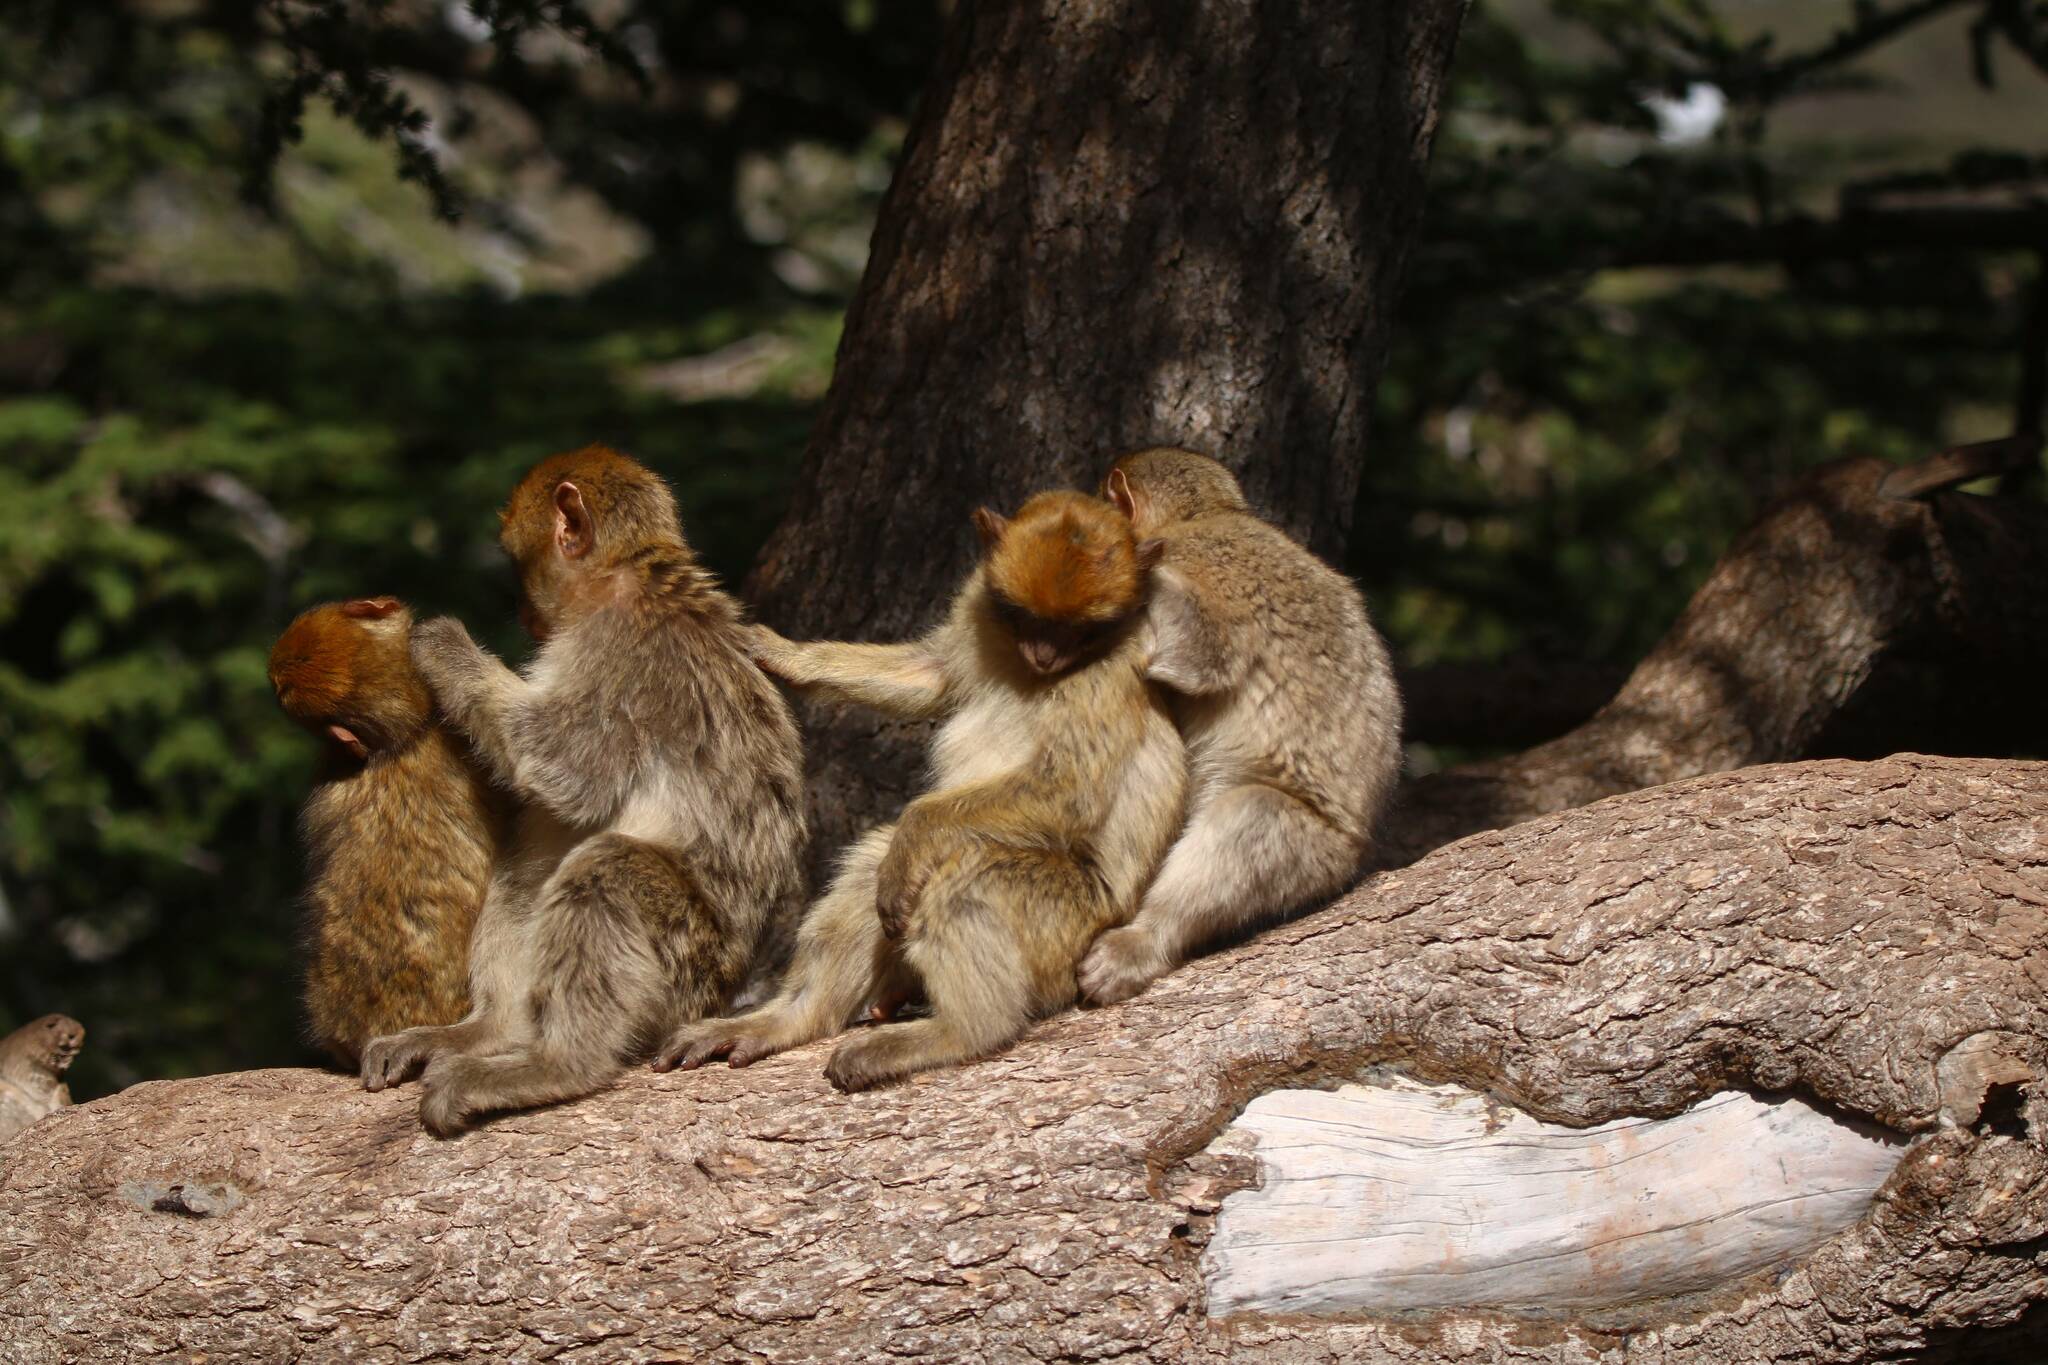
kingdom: Animalia
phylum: Chordata
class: Mammalia
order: Primates
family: Cercopithecidae
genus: Macaca
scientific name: Macaca sylvanus
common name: Barbary macaque
